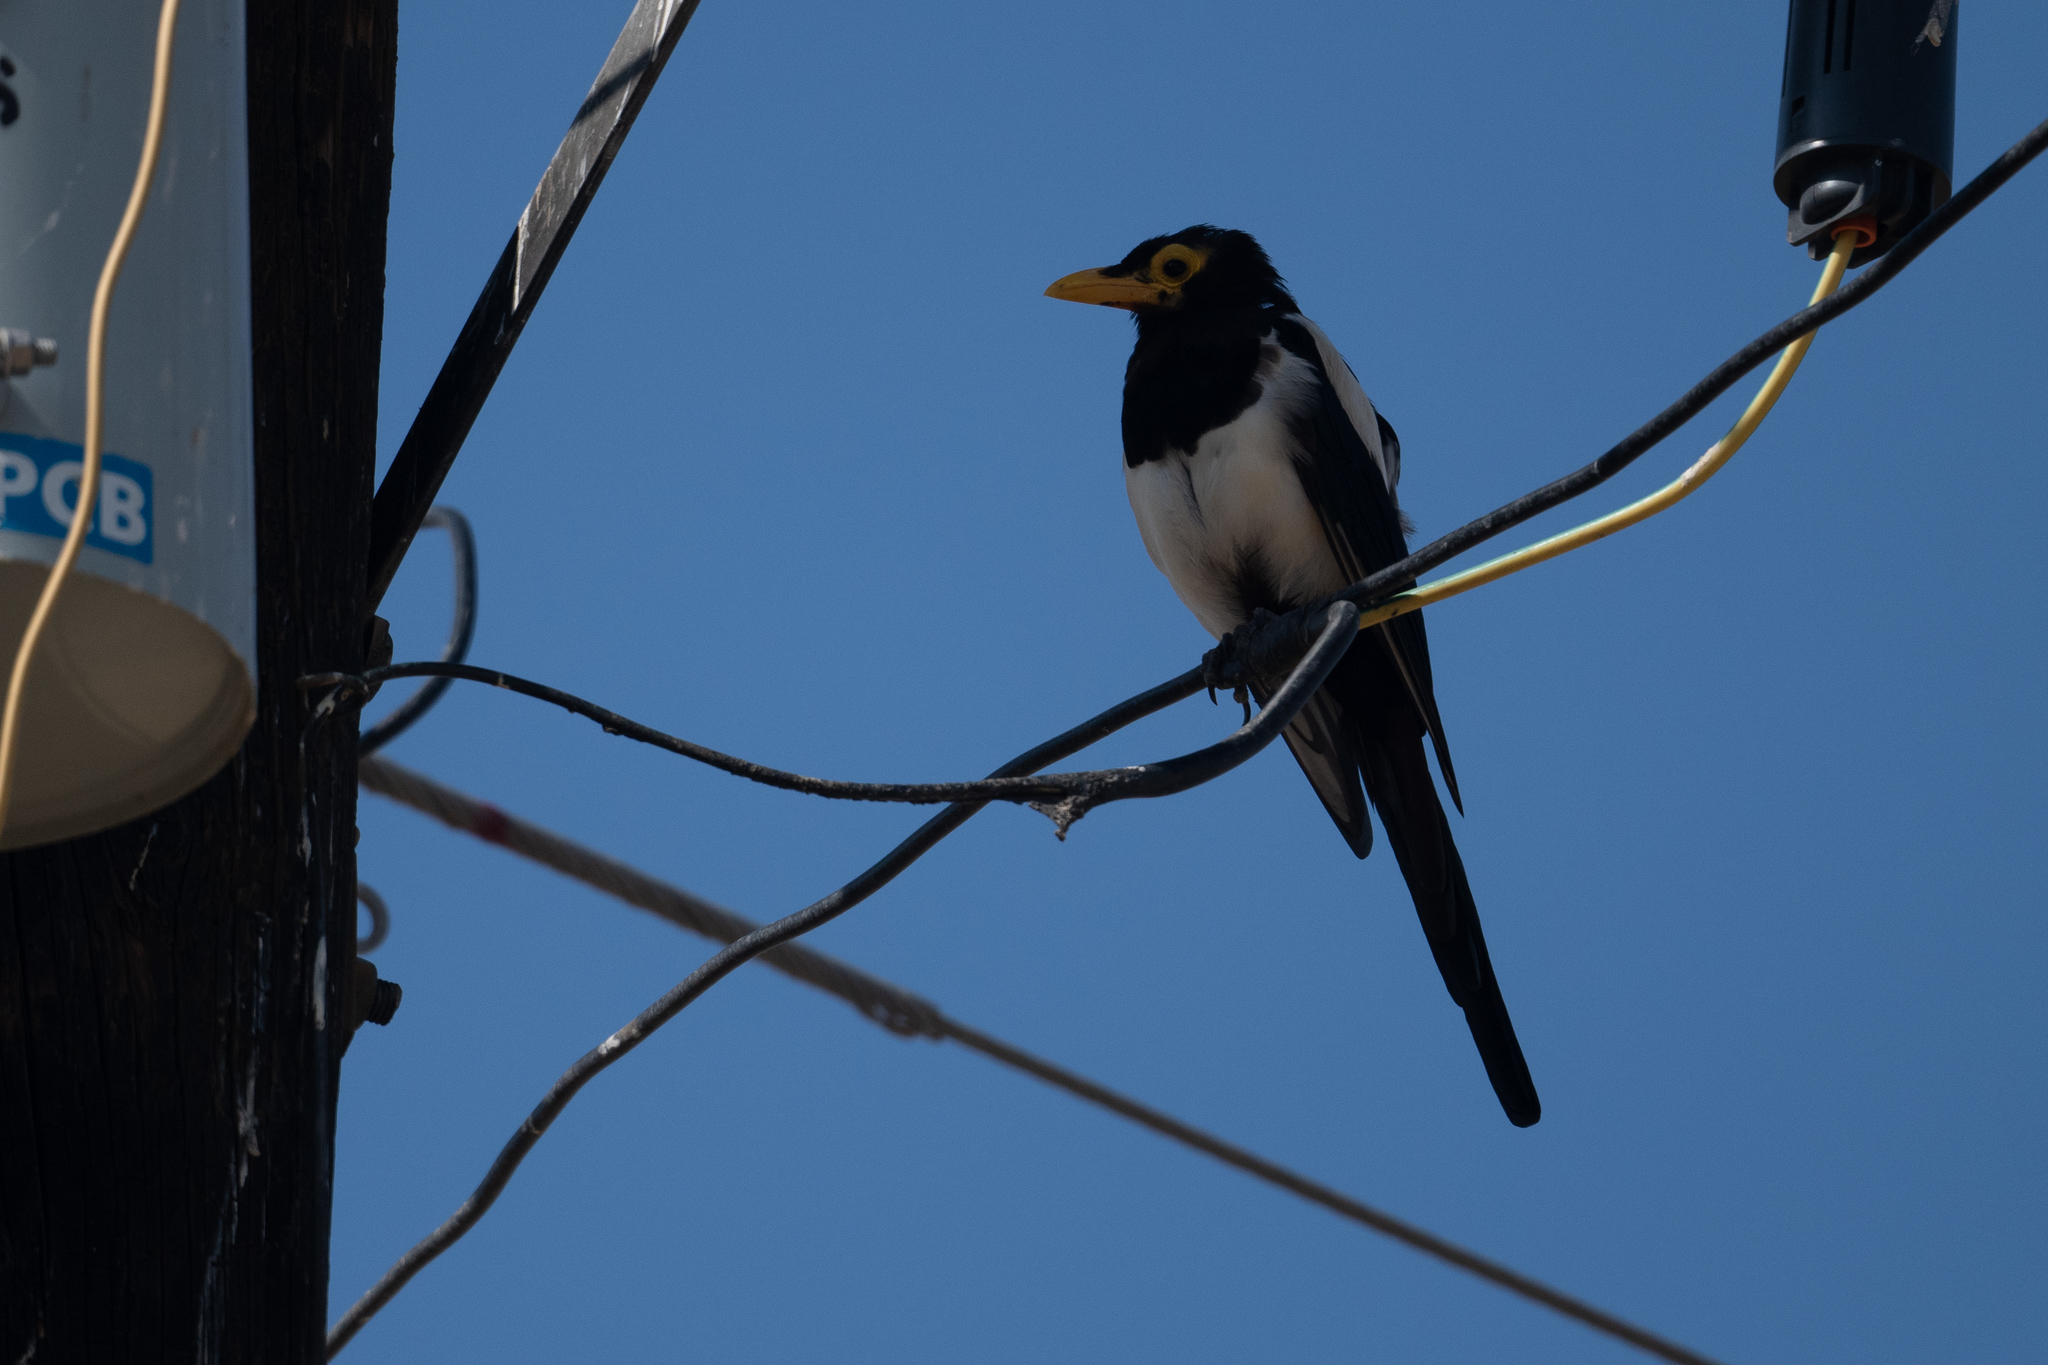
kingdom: Animalia
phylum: Chordata
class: Aves
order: Passeriformes
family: Corvidae
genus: Pica
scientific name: Pica nuttalli
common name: Yellow-billed magpie
